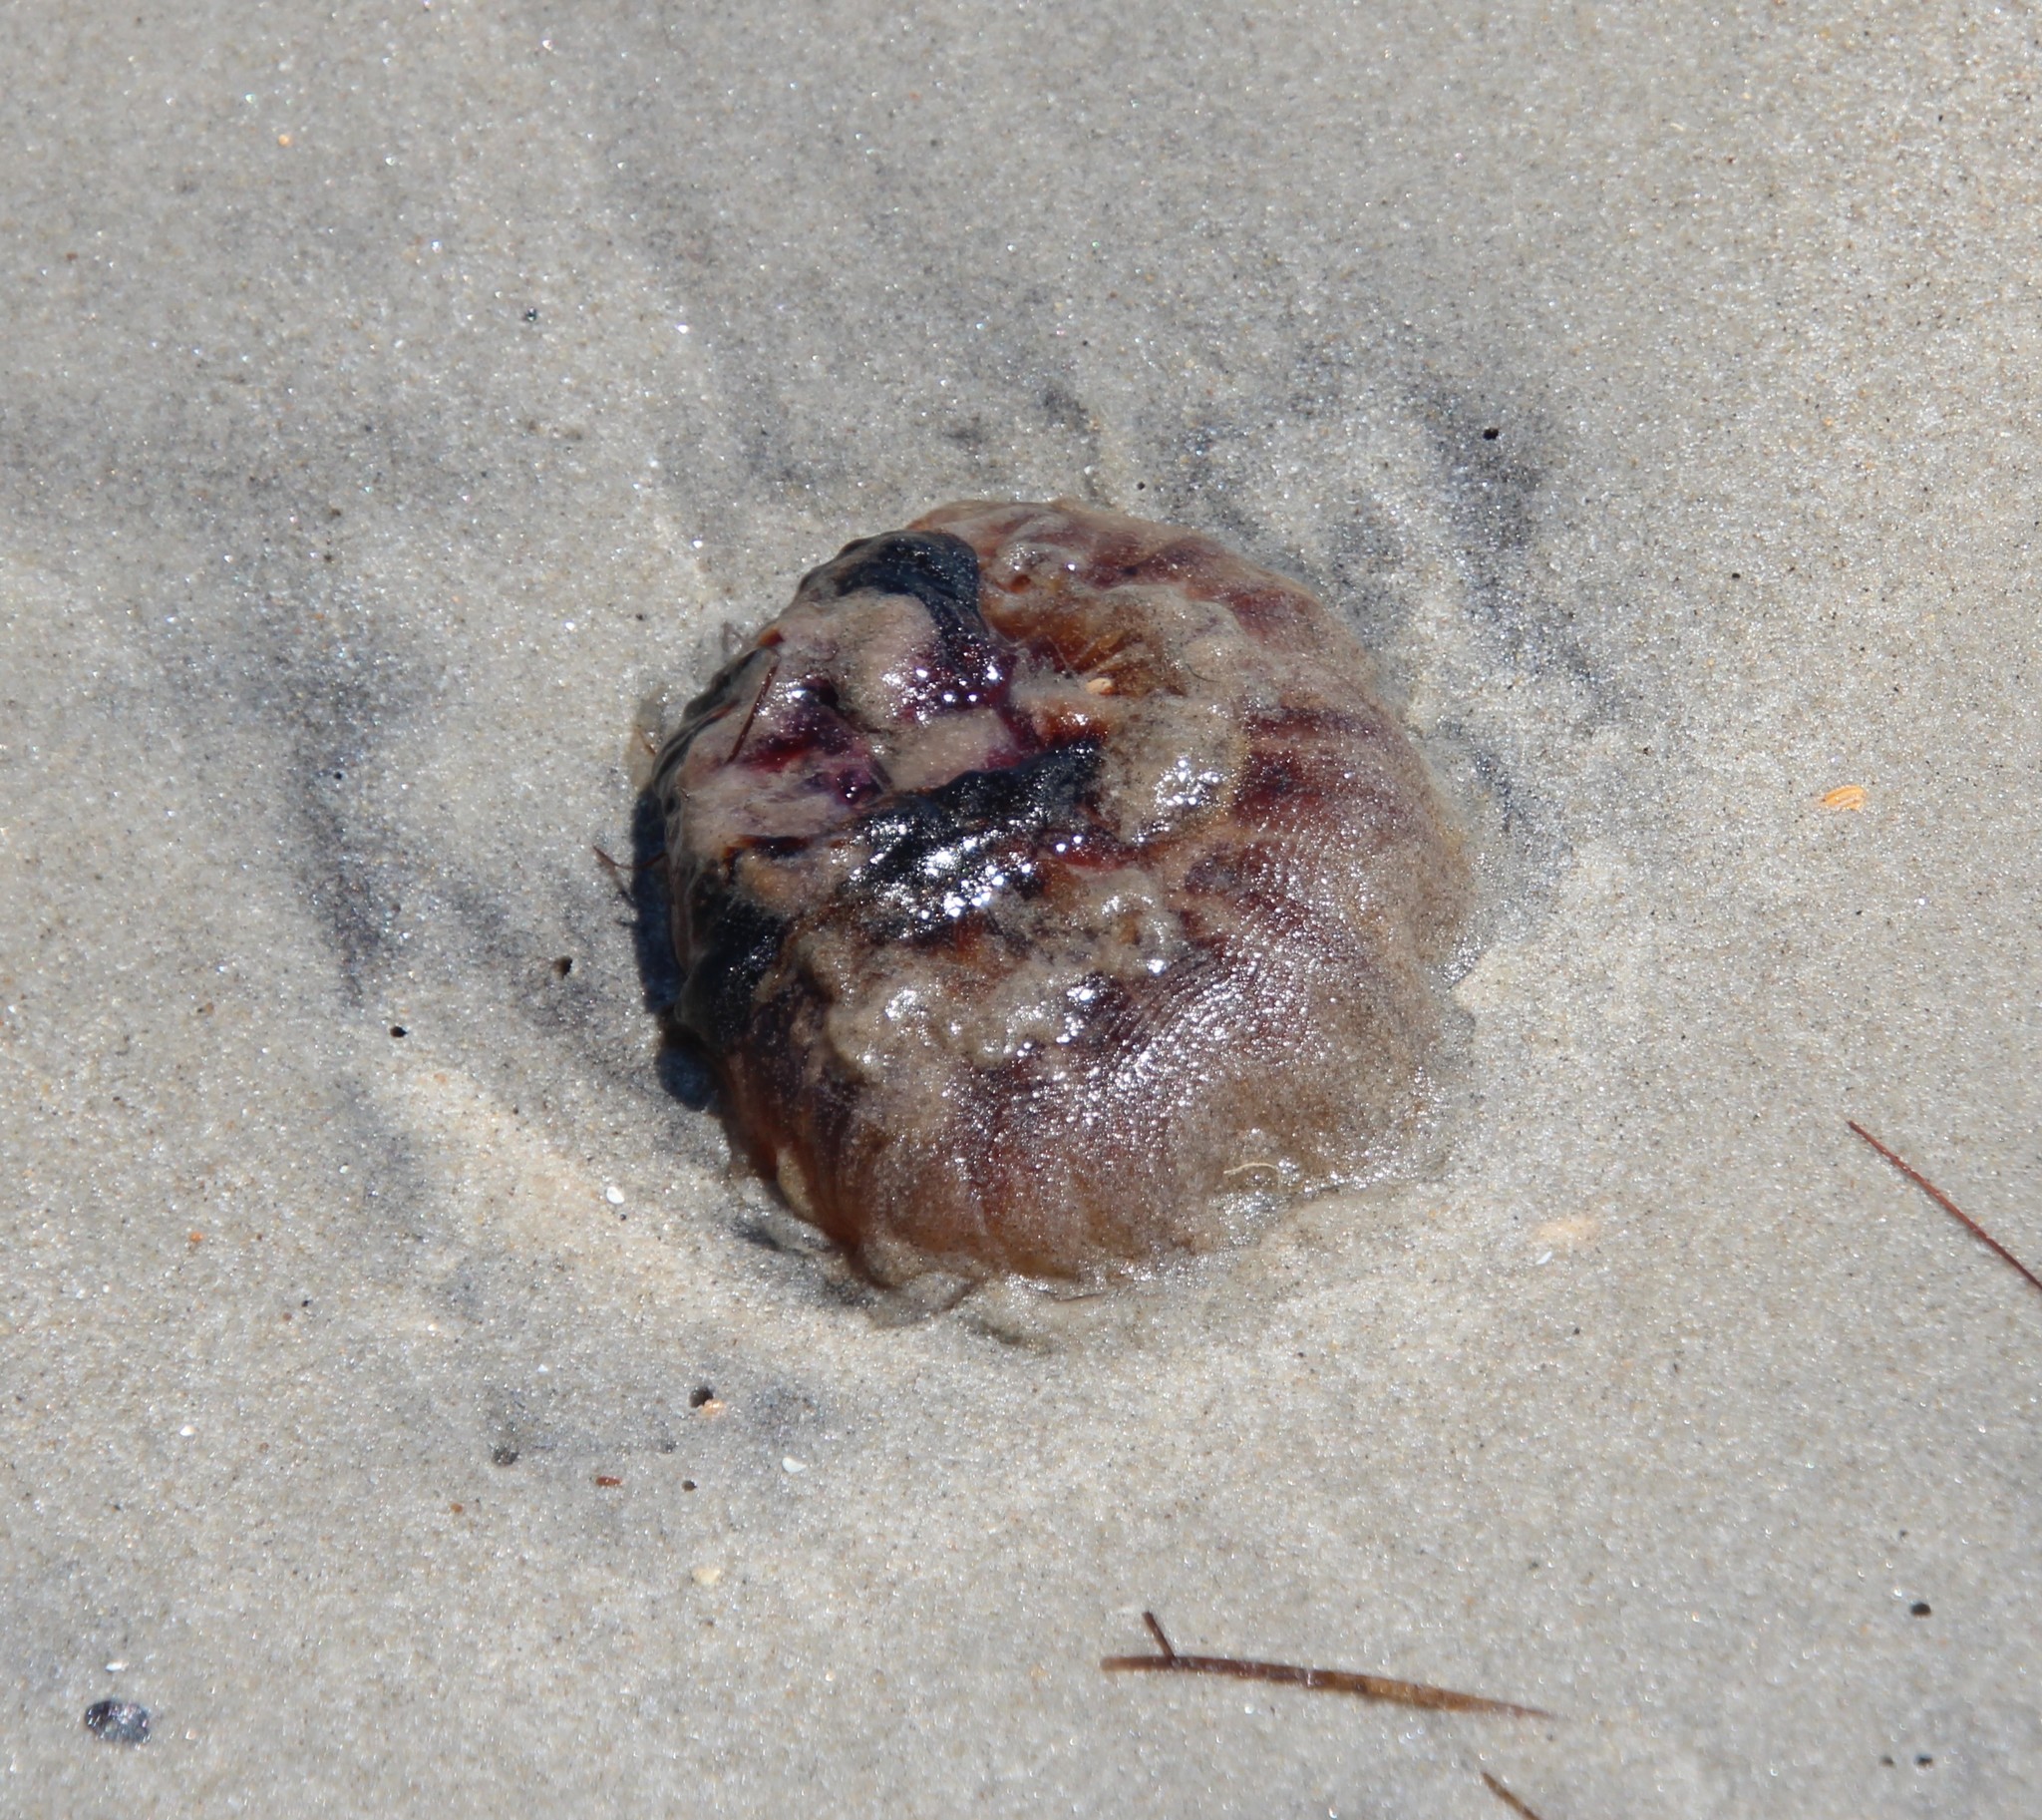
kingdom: Animalia
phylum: Cnidaria
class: Scyphozoa
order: Semaeostomeae
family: Cyaneidae
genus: Cyanea
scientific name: Cyanea versicolor
